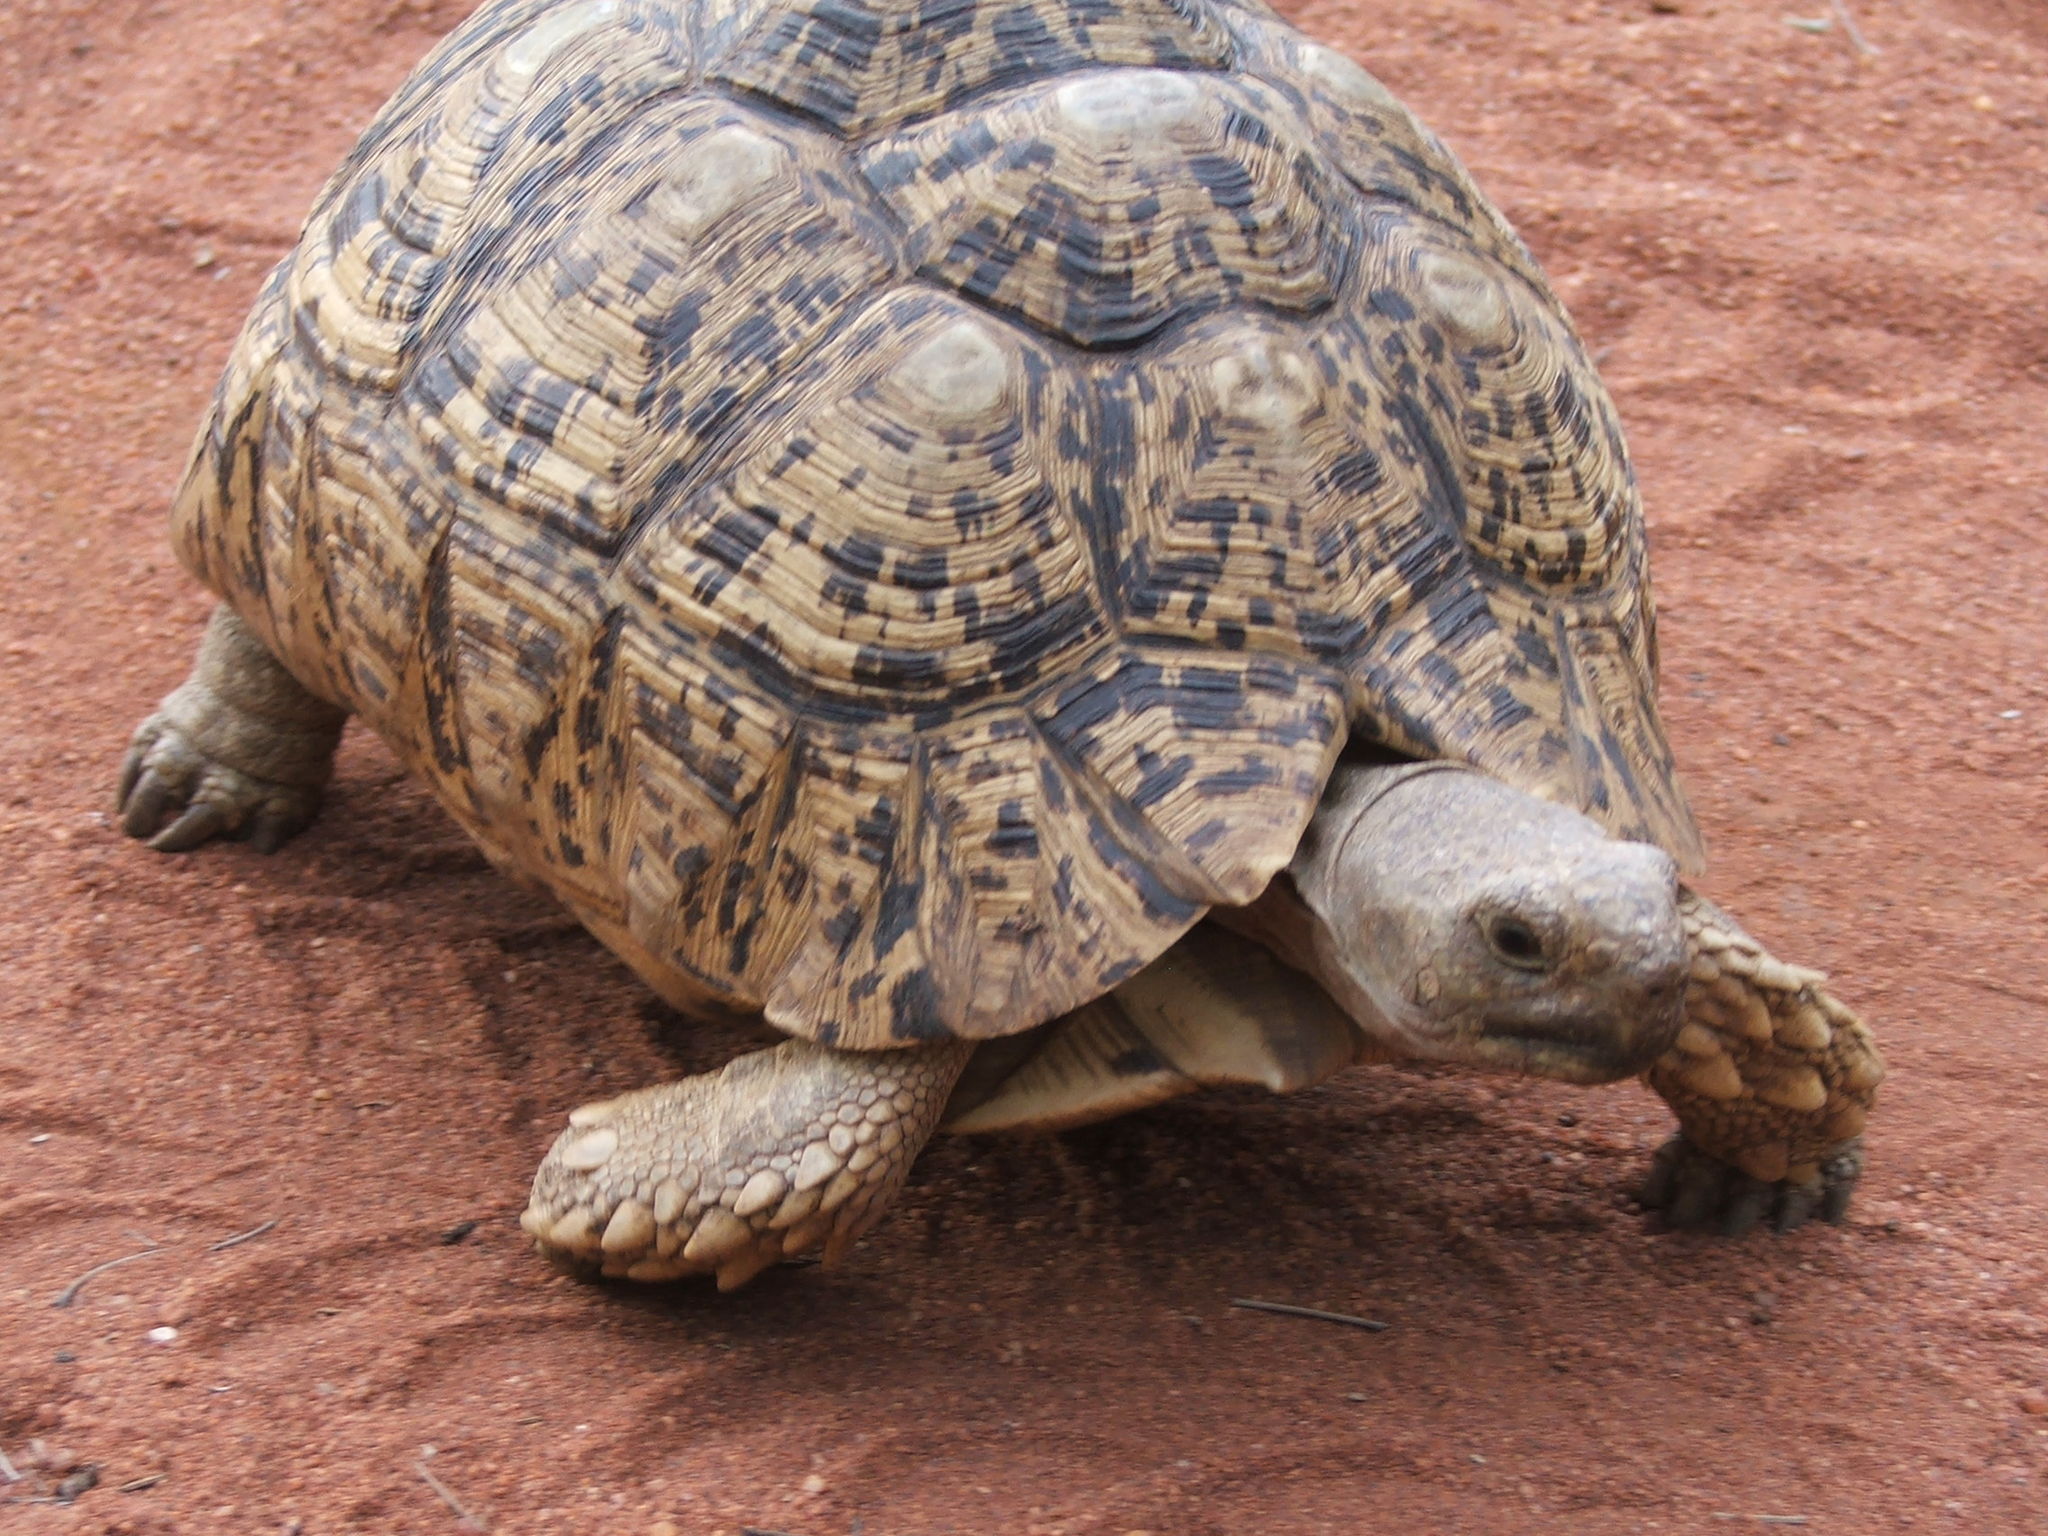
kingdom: Animalia
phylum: Chordata
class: Testudines
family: Testudinidae
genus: Stigmochelys
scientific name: Stigmochelys pardalis
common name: Leopard tortoise
